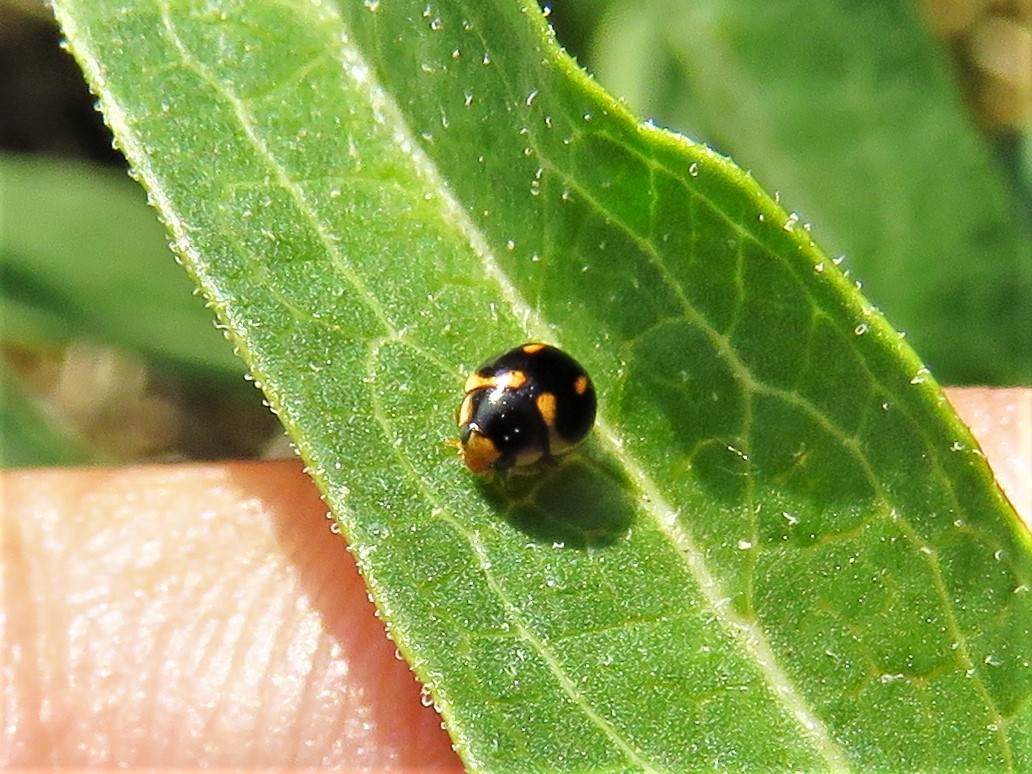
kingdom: Animalia
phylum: Arthropoda
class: Insecta
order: Coleoptera
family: Coccinellidae
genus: Hyperaspis
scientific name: Hyperaspis trifurcata
